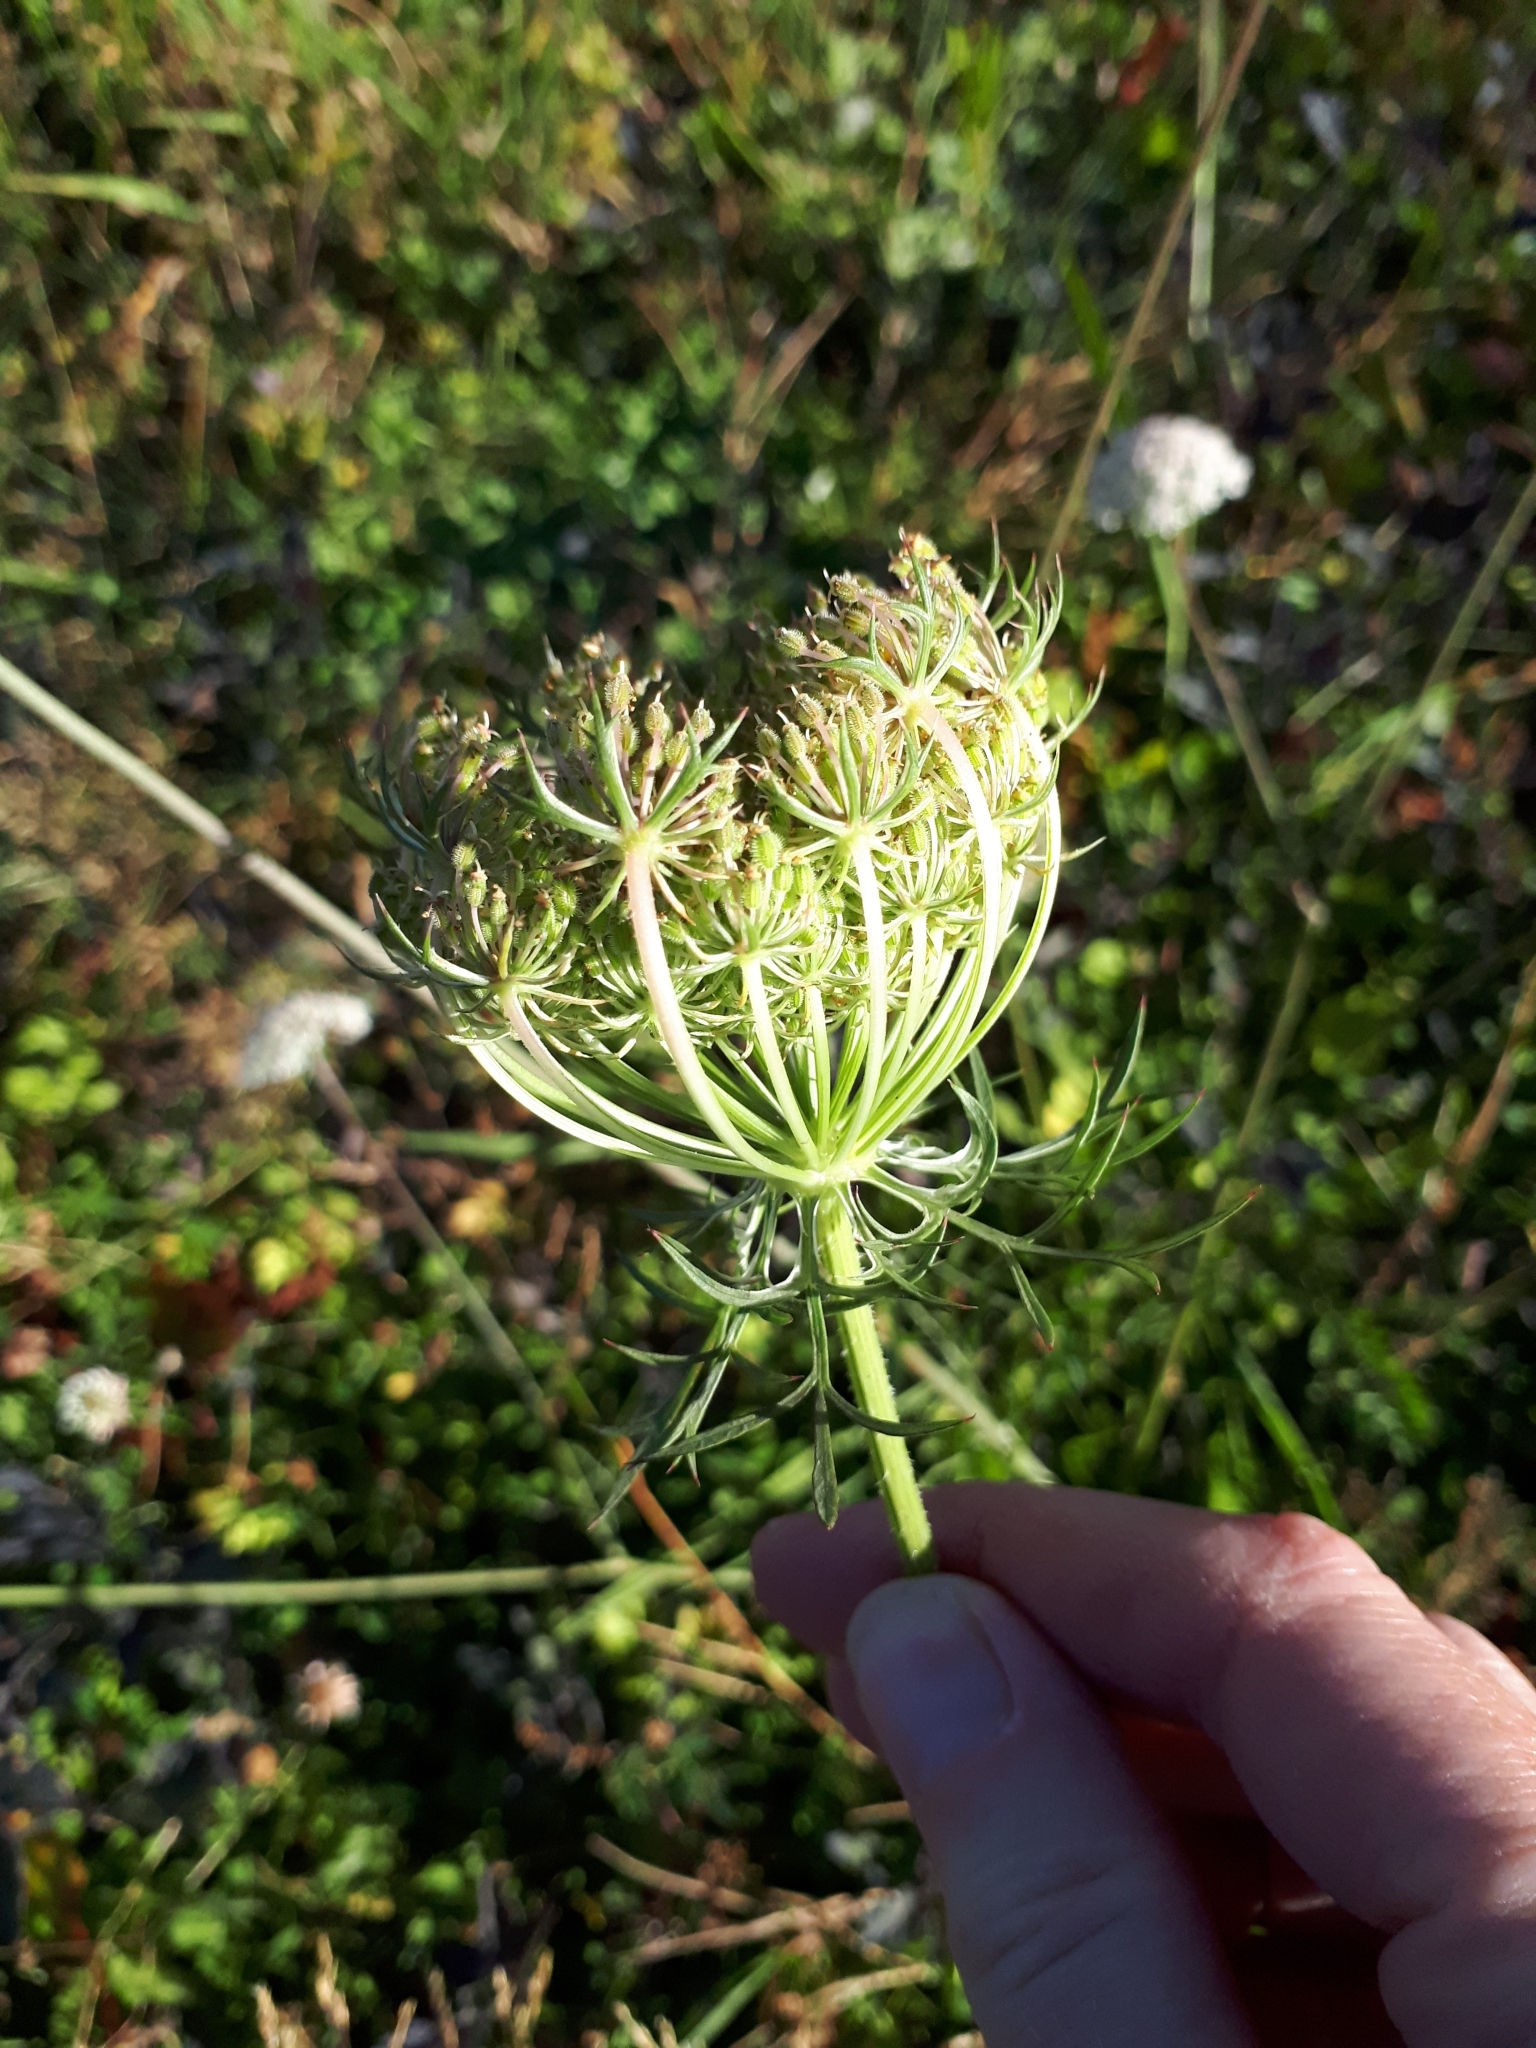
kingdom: Plantae
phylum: Tracheophyta
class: Magnoliopsida
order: Apiales
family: Apiaceae
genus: Daucus
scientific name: Daucus carota
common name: Wild carrot
